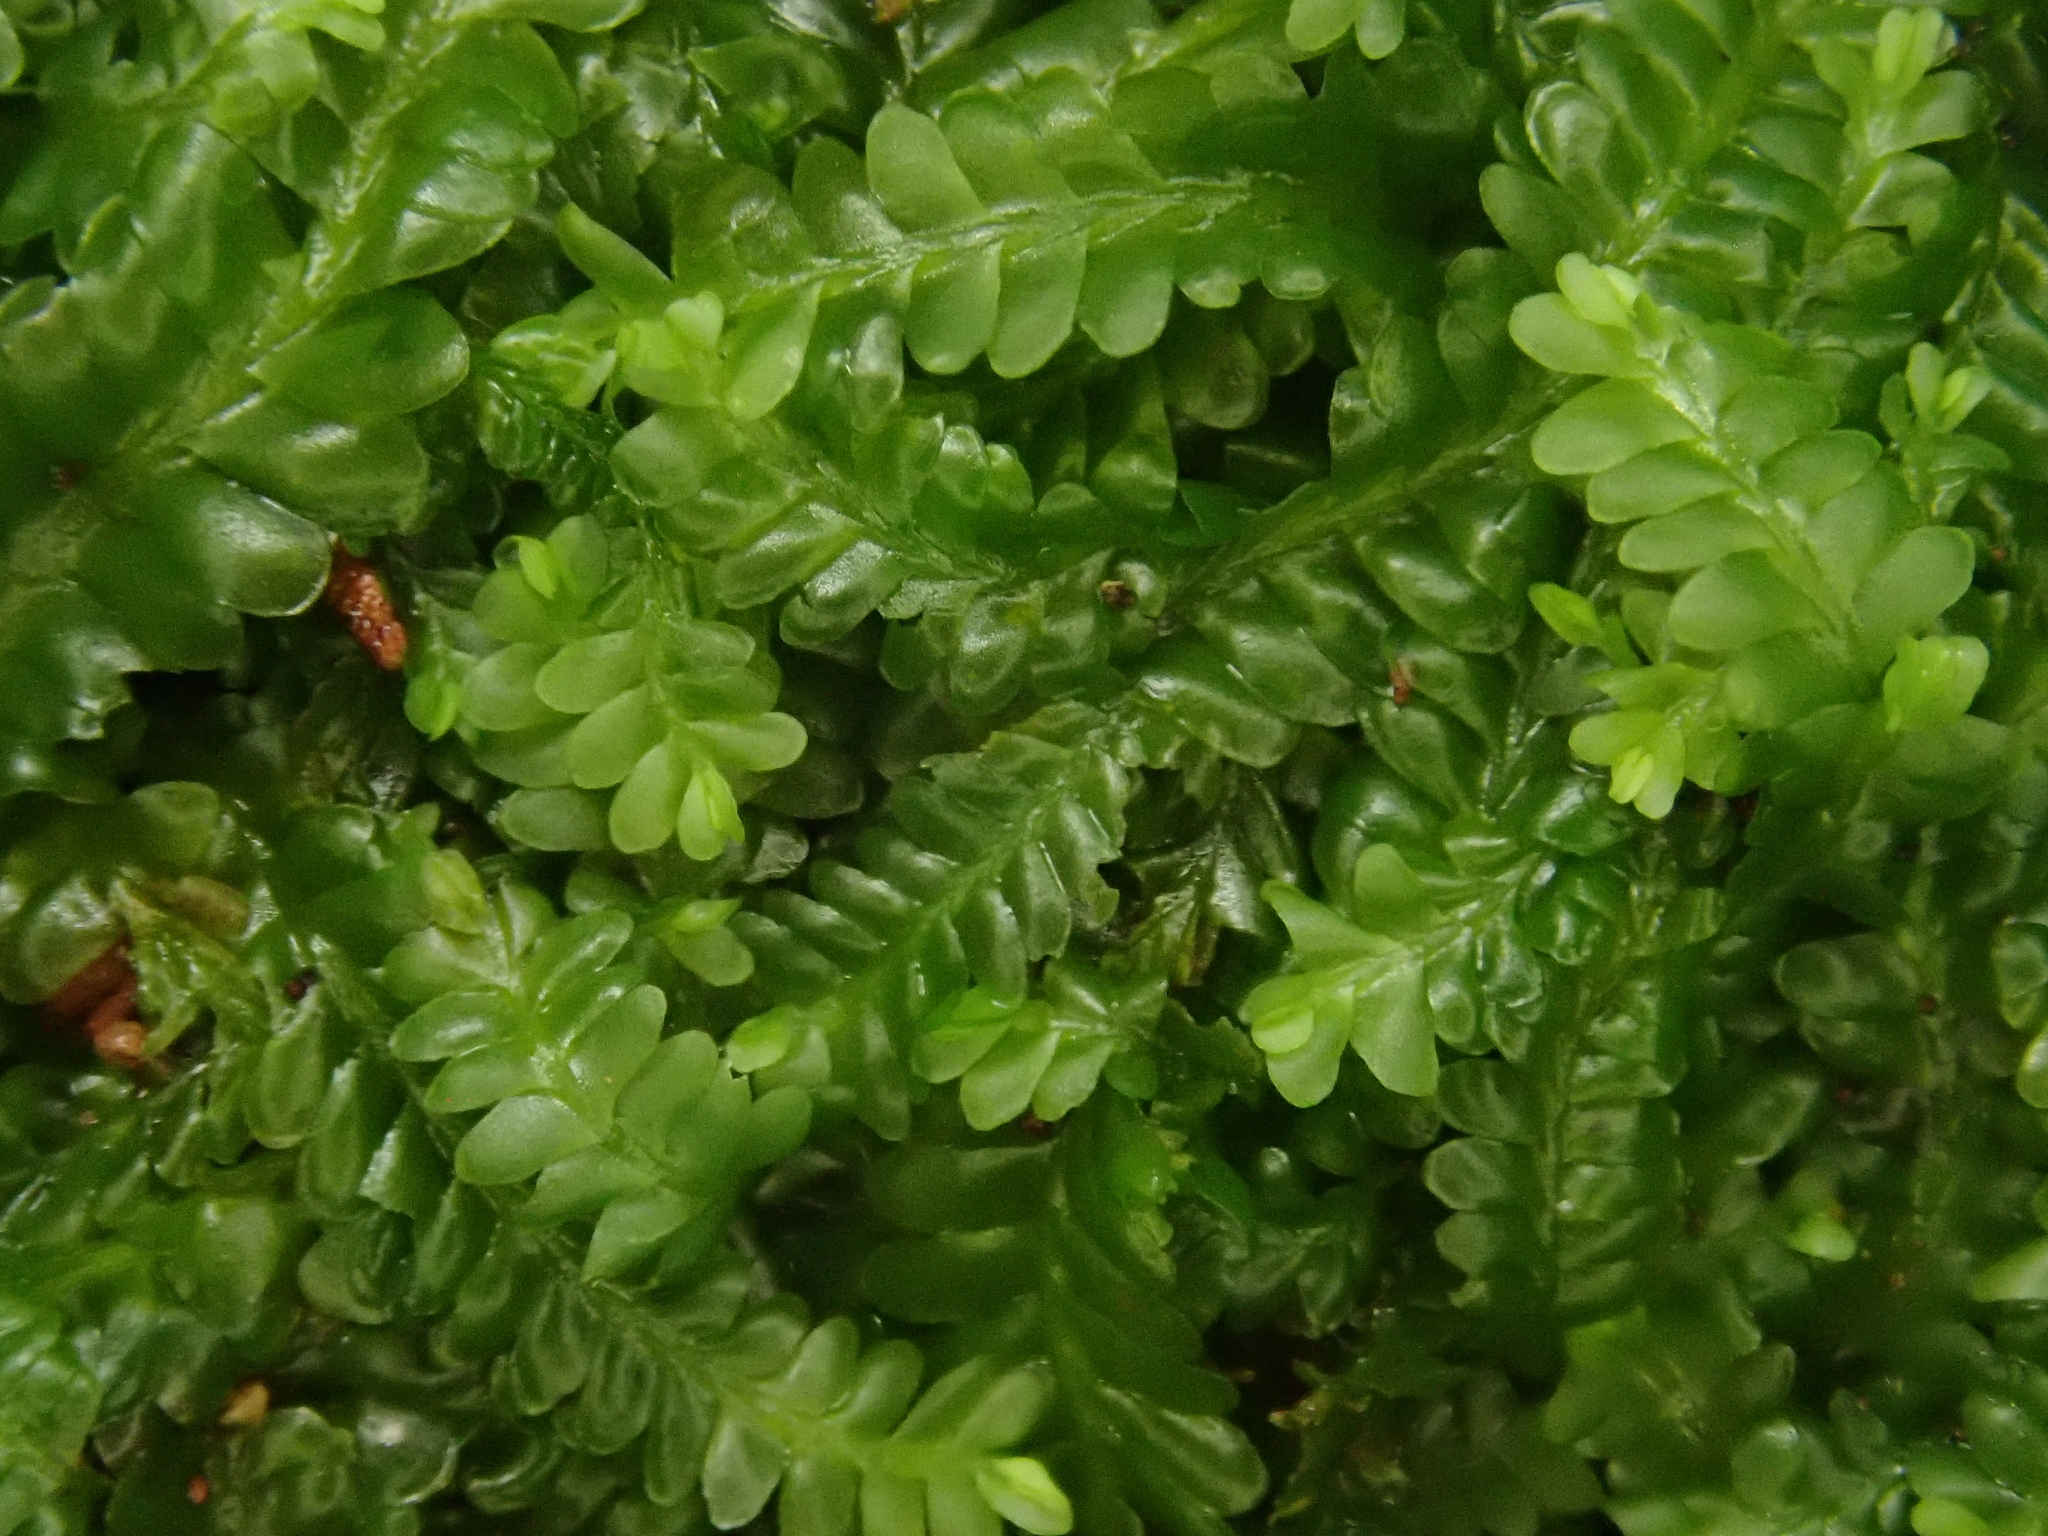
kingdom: Plantae
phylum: Marchantiophyta
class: Jungermanniopsida
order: Jungermanniales
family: Saccogynaceae
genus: Saccogyna
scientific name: Saccogyna viticulosa
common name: Straggling pouchwort
